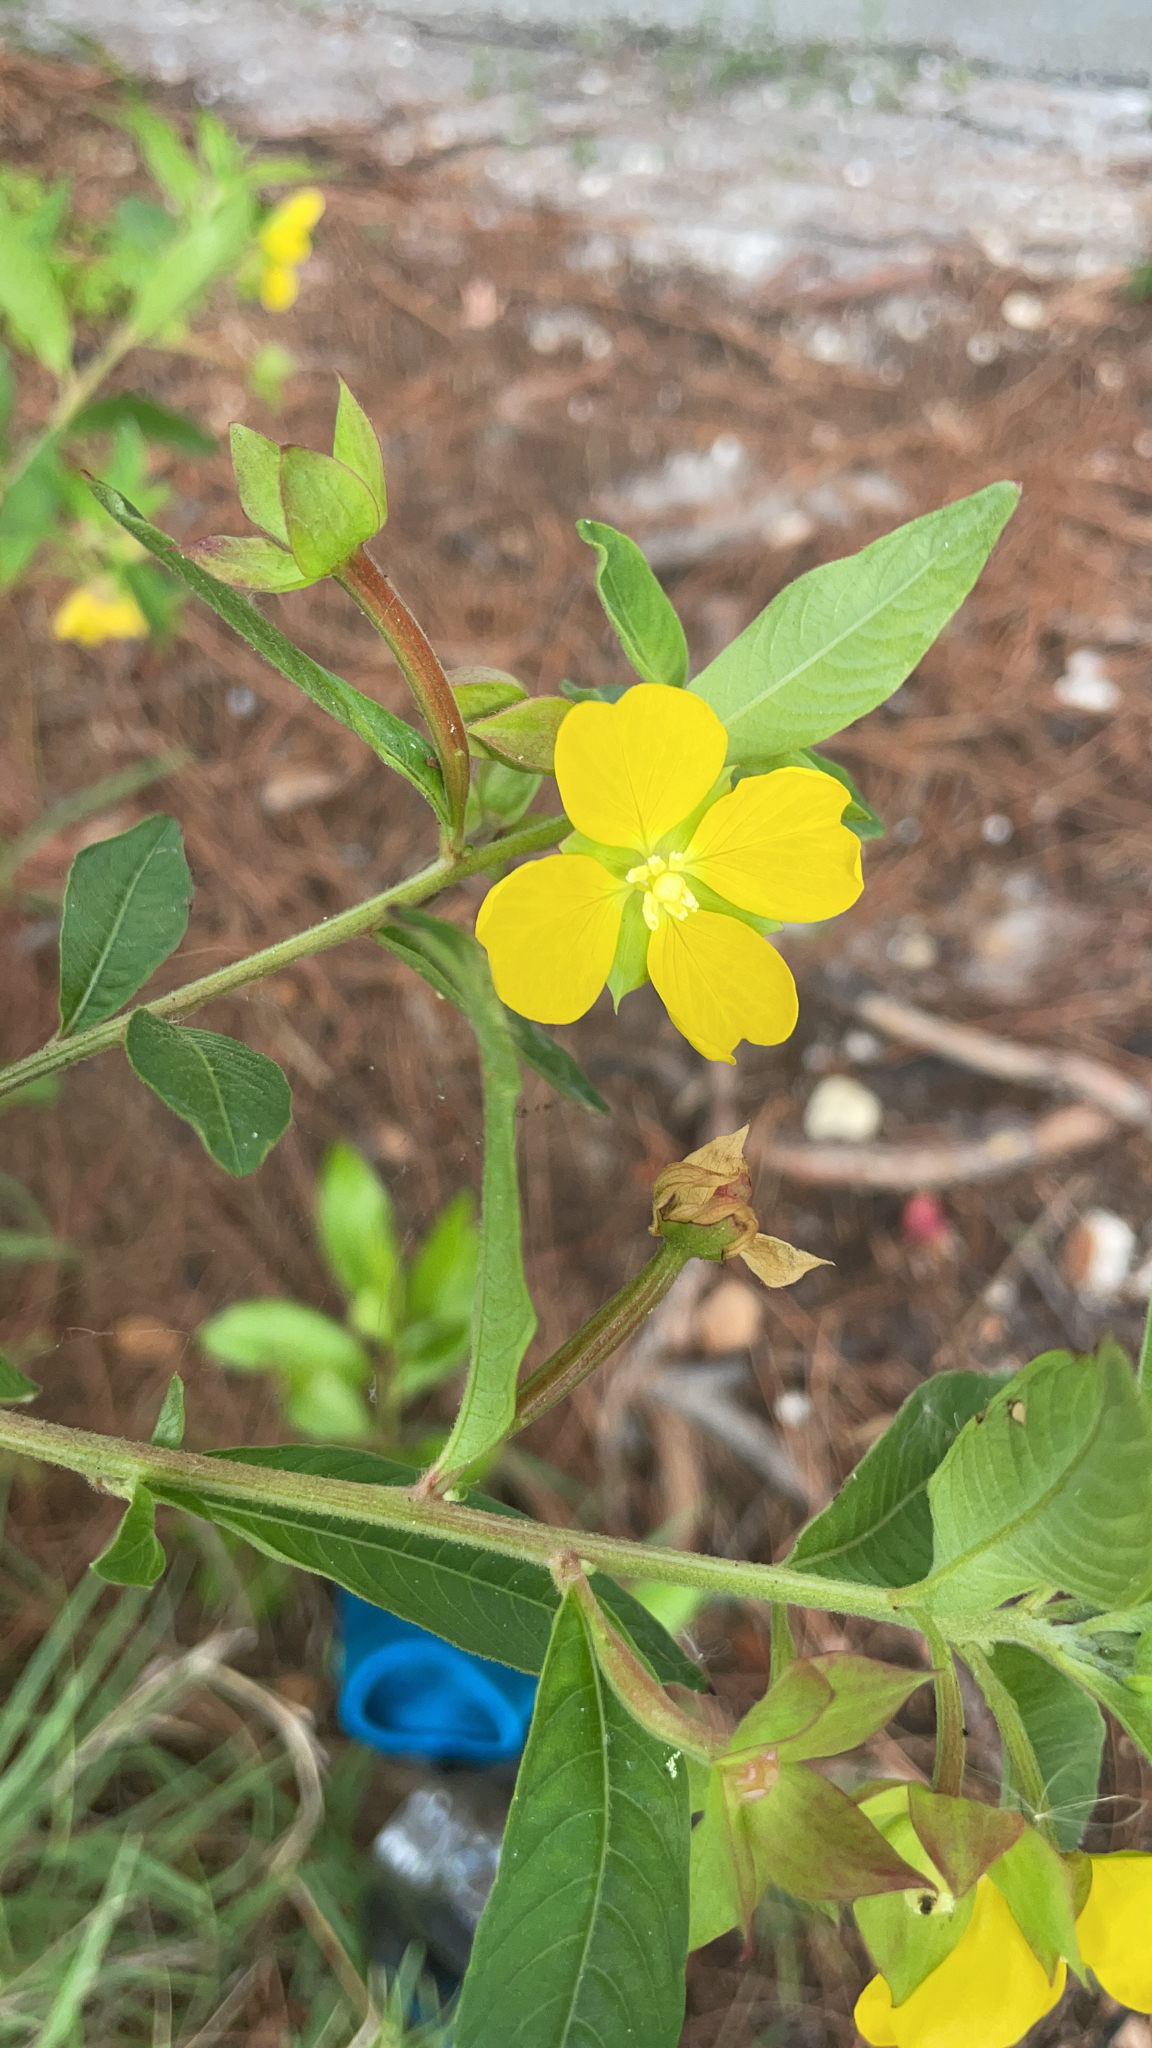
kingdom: Plantae
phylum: Tracheophyta
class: Magnoliopsida
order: Myrtales
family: Onagraceae
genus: Ludwigia
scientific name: Ludwigia octovalvis
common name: Water-primrose
